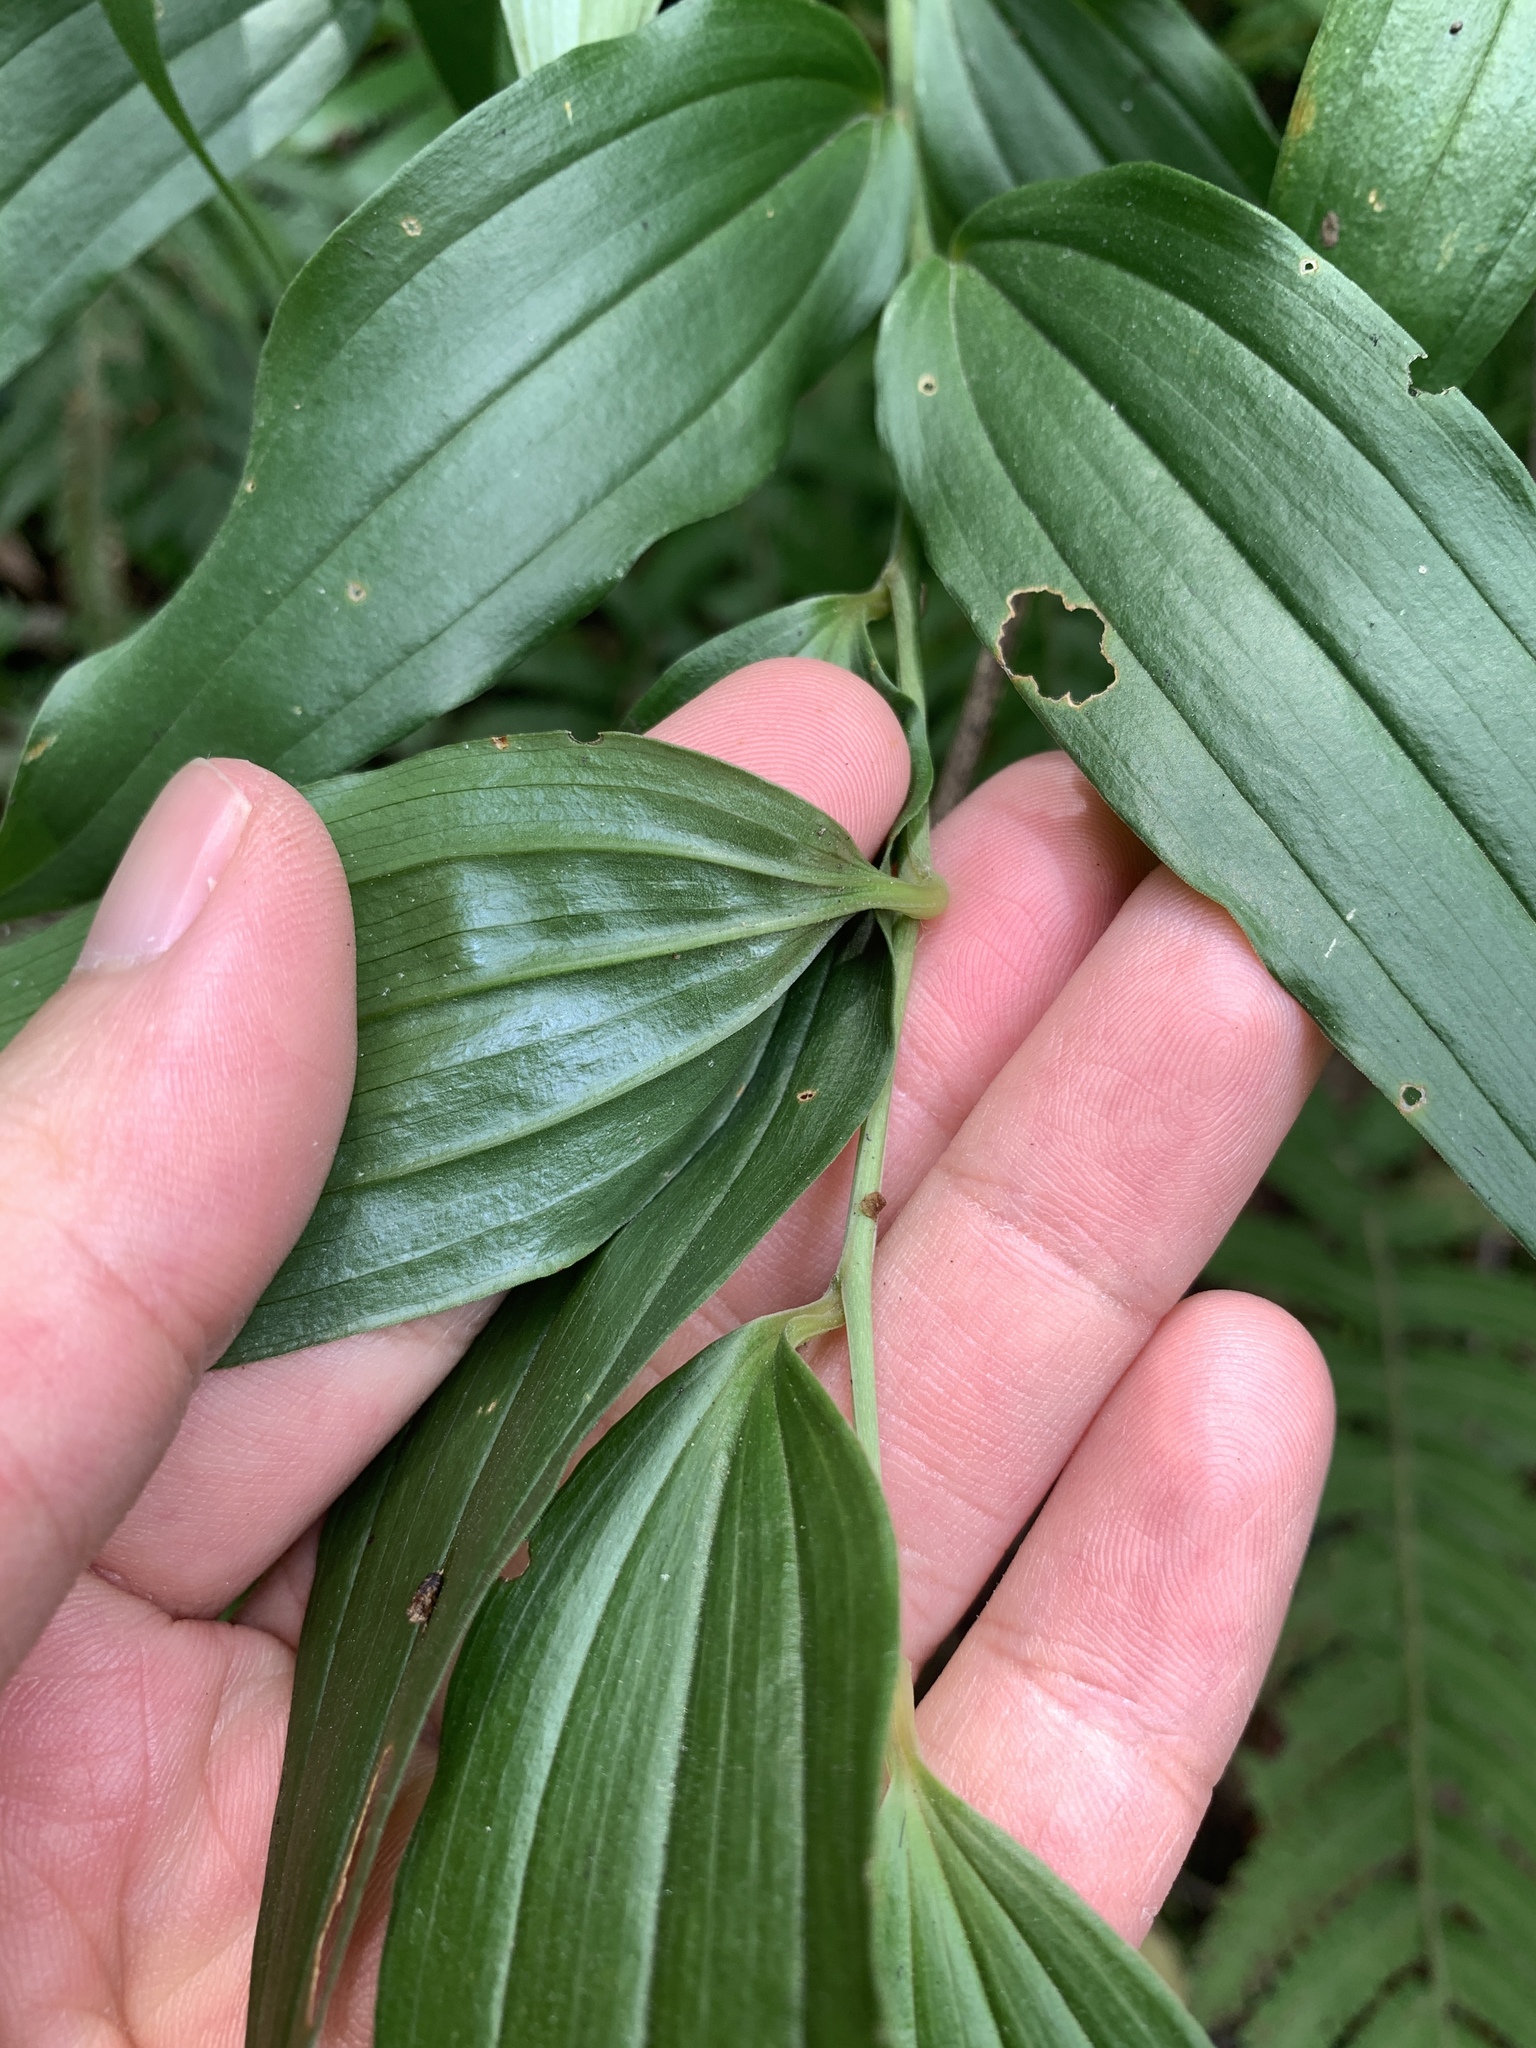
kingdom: Plantae
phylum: Tracheophyta
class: Liliopsida
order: Liliales
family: Colchicaceae
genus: Disporum
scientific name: Disporum kawakamii
